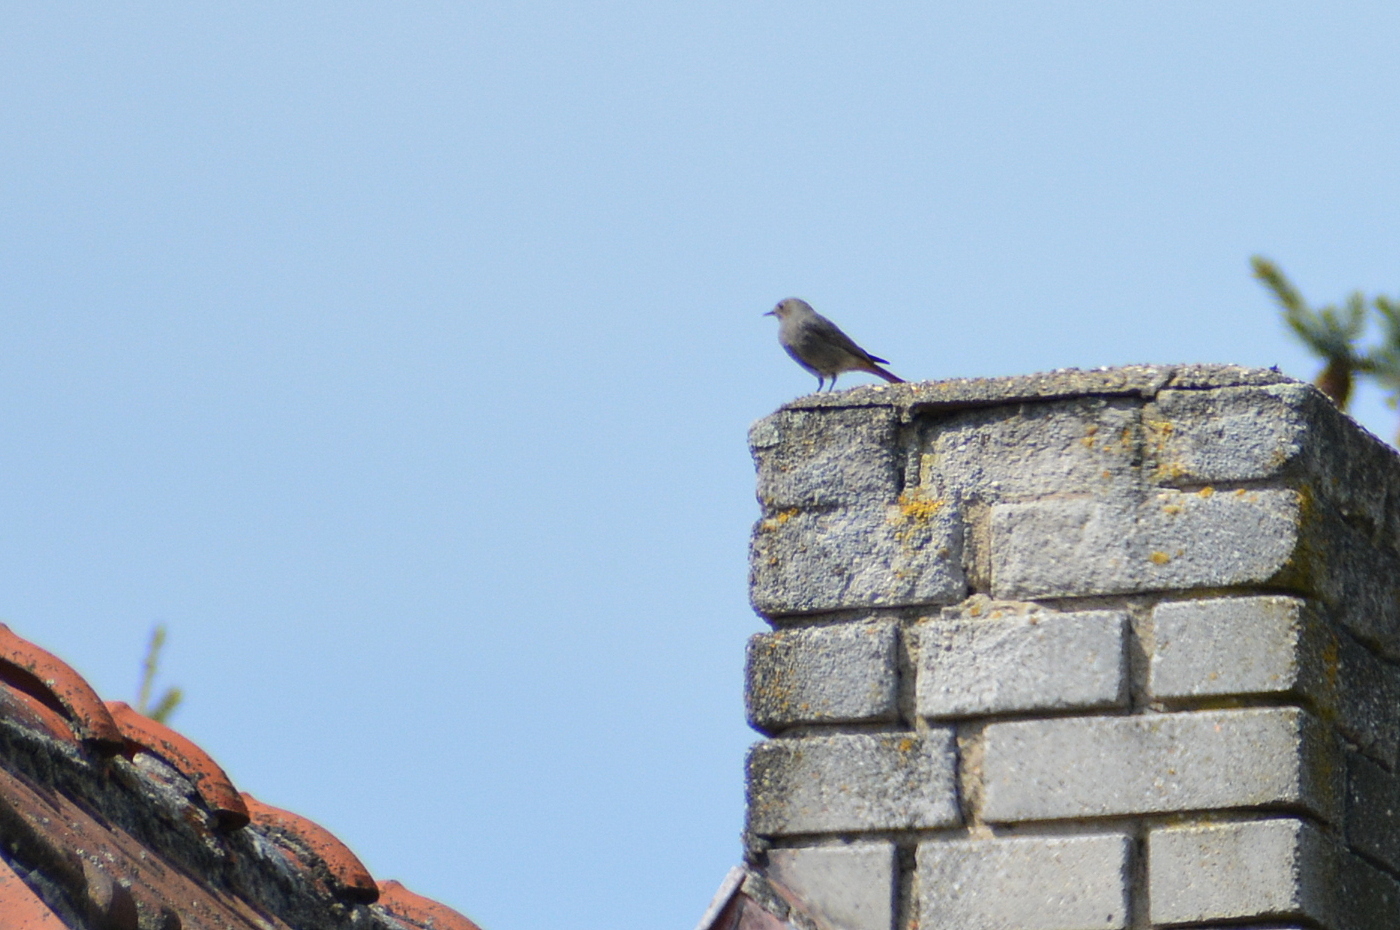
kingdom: Animalia
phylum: Chordata
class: Aves
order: Passeriformes
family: Muscicapidae
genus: Phoenicurus
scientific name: Phoenicurus ochruros
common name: Black redstart
